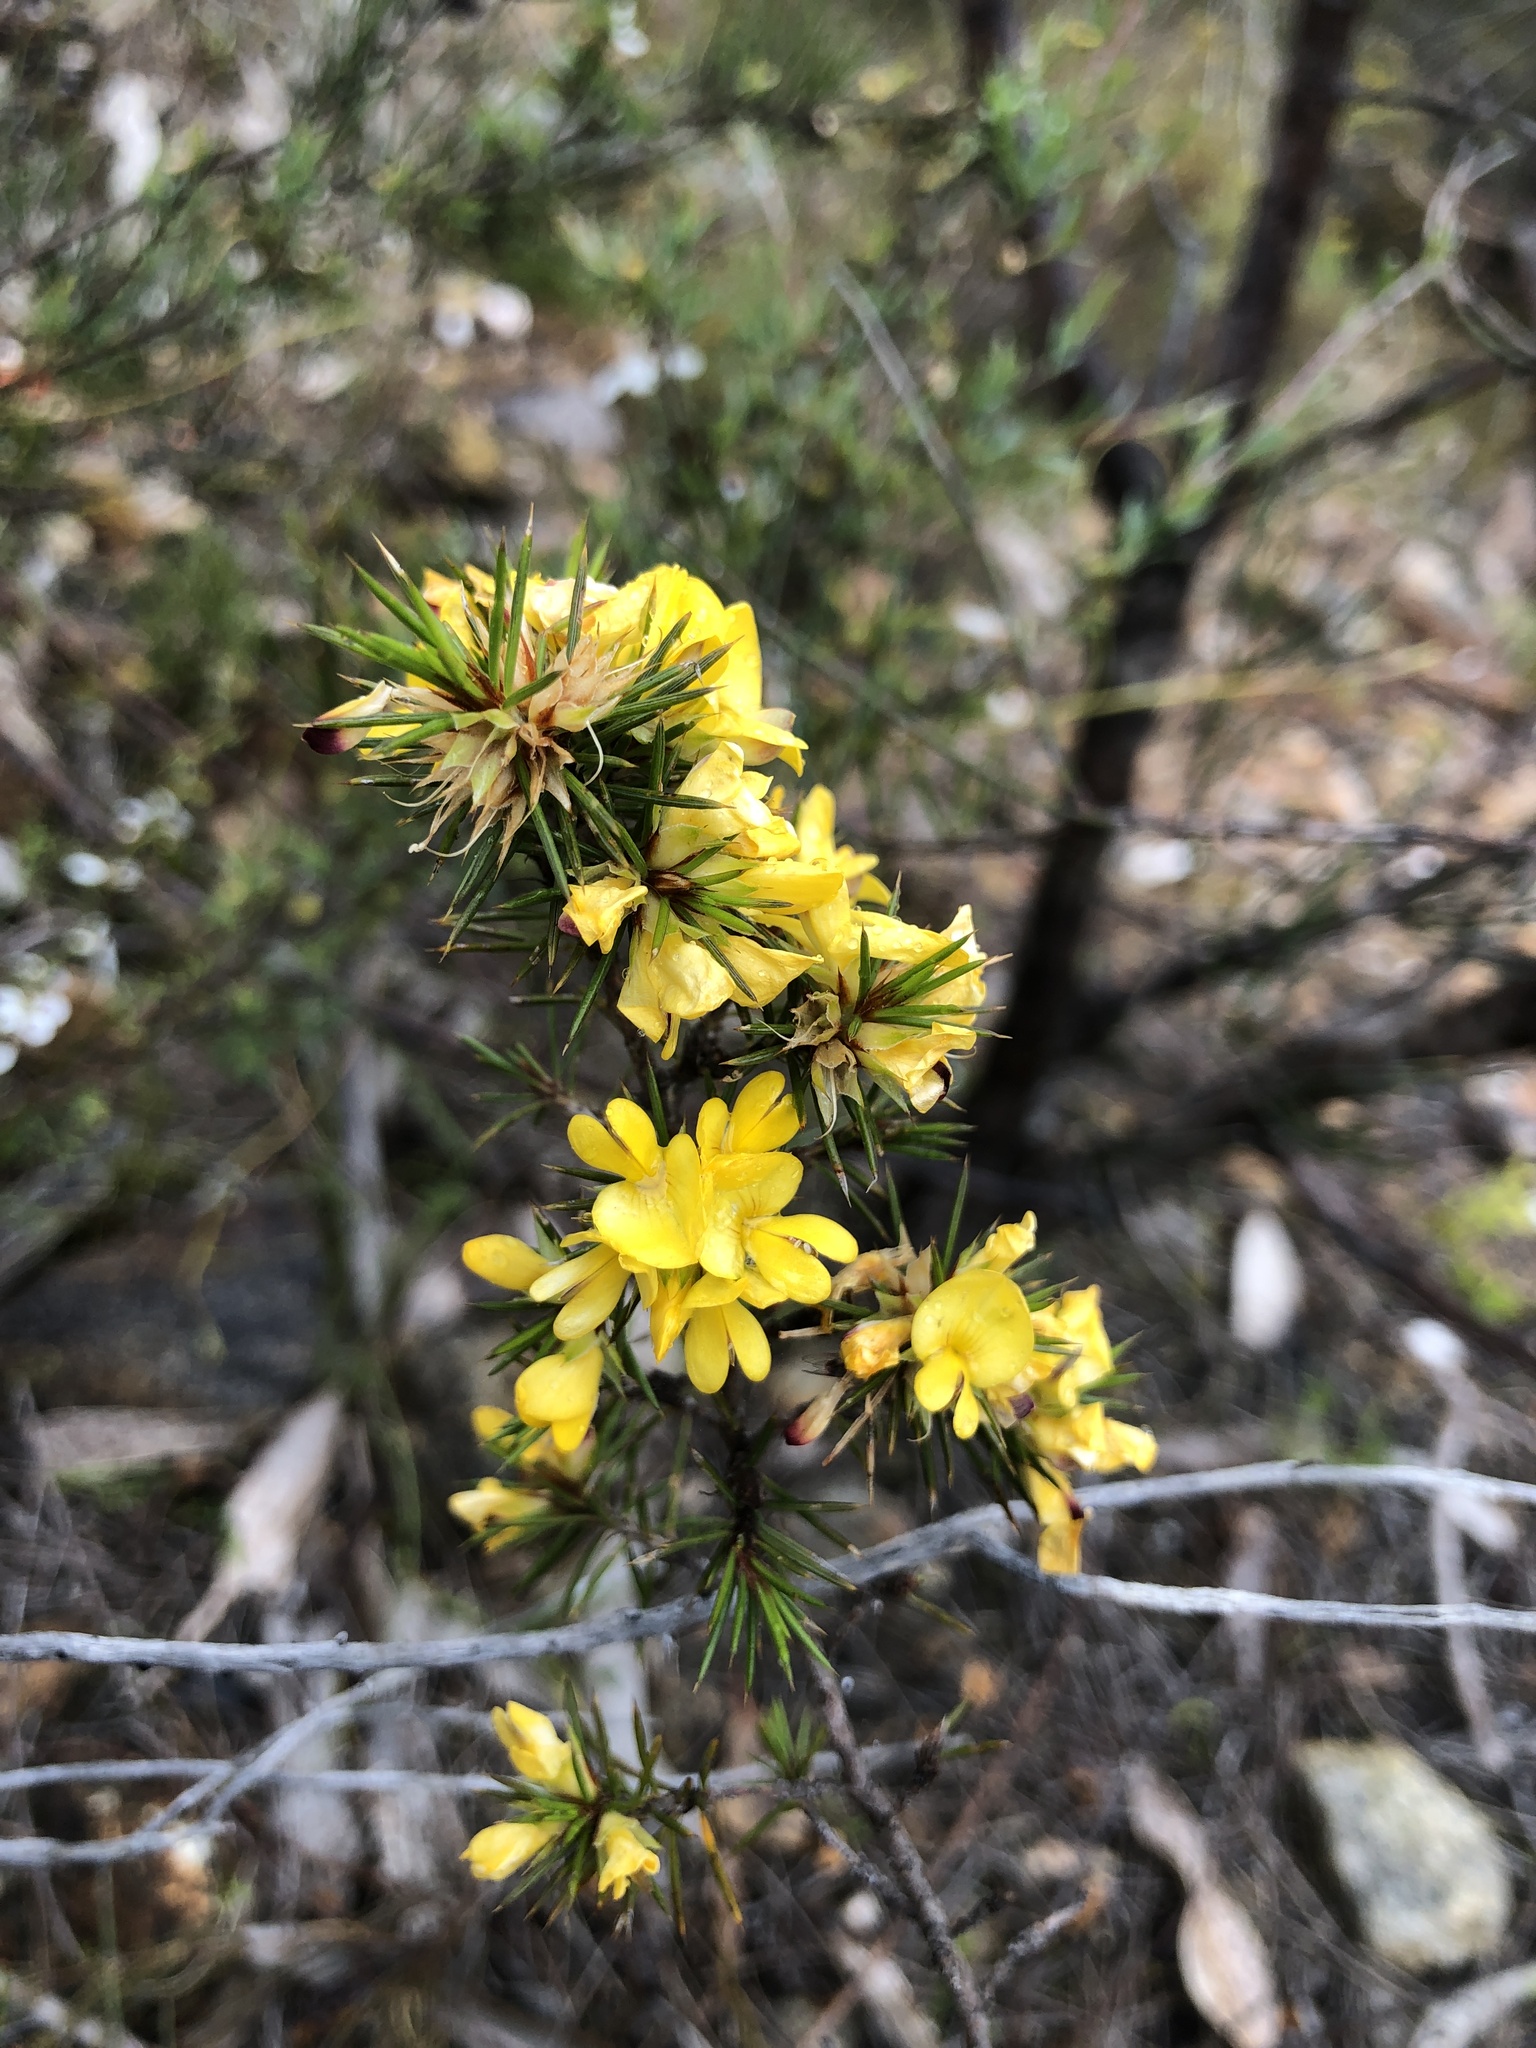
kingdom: Plantae
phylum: Tracheophyta
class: Magnoliopsida
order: Fabales
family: Fabaceae
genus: Pultenaea
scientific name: Pultenaea acerosa
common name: Bristly bush-pea
